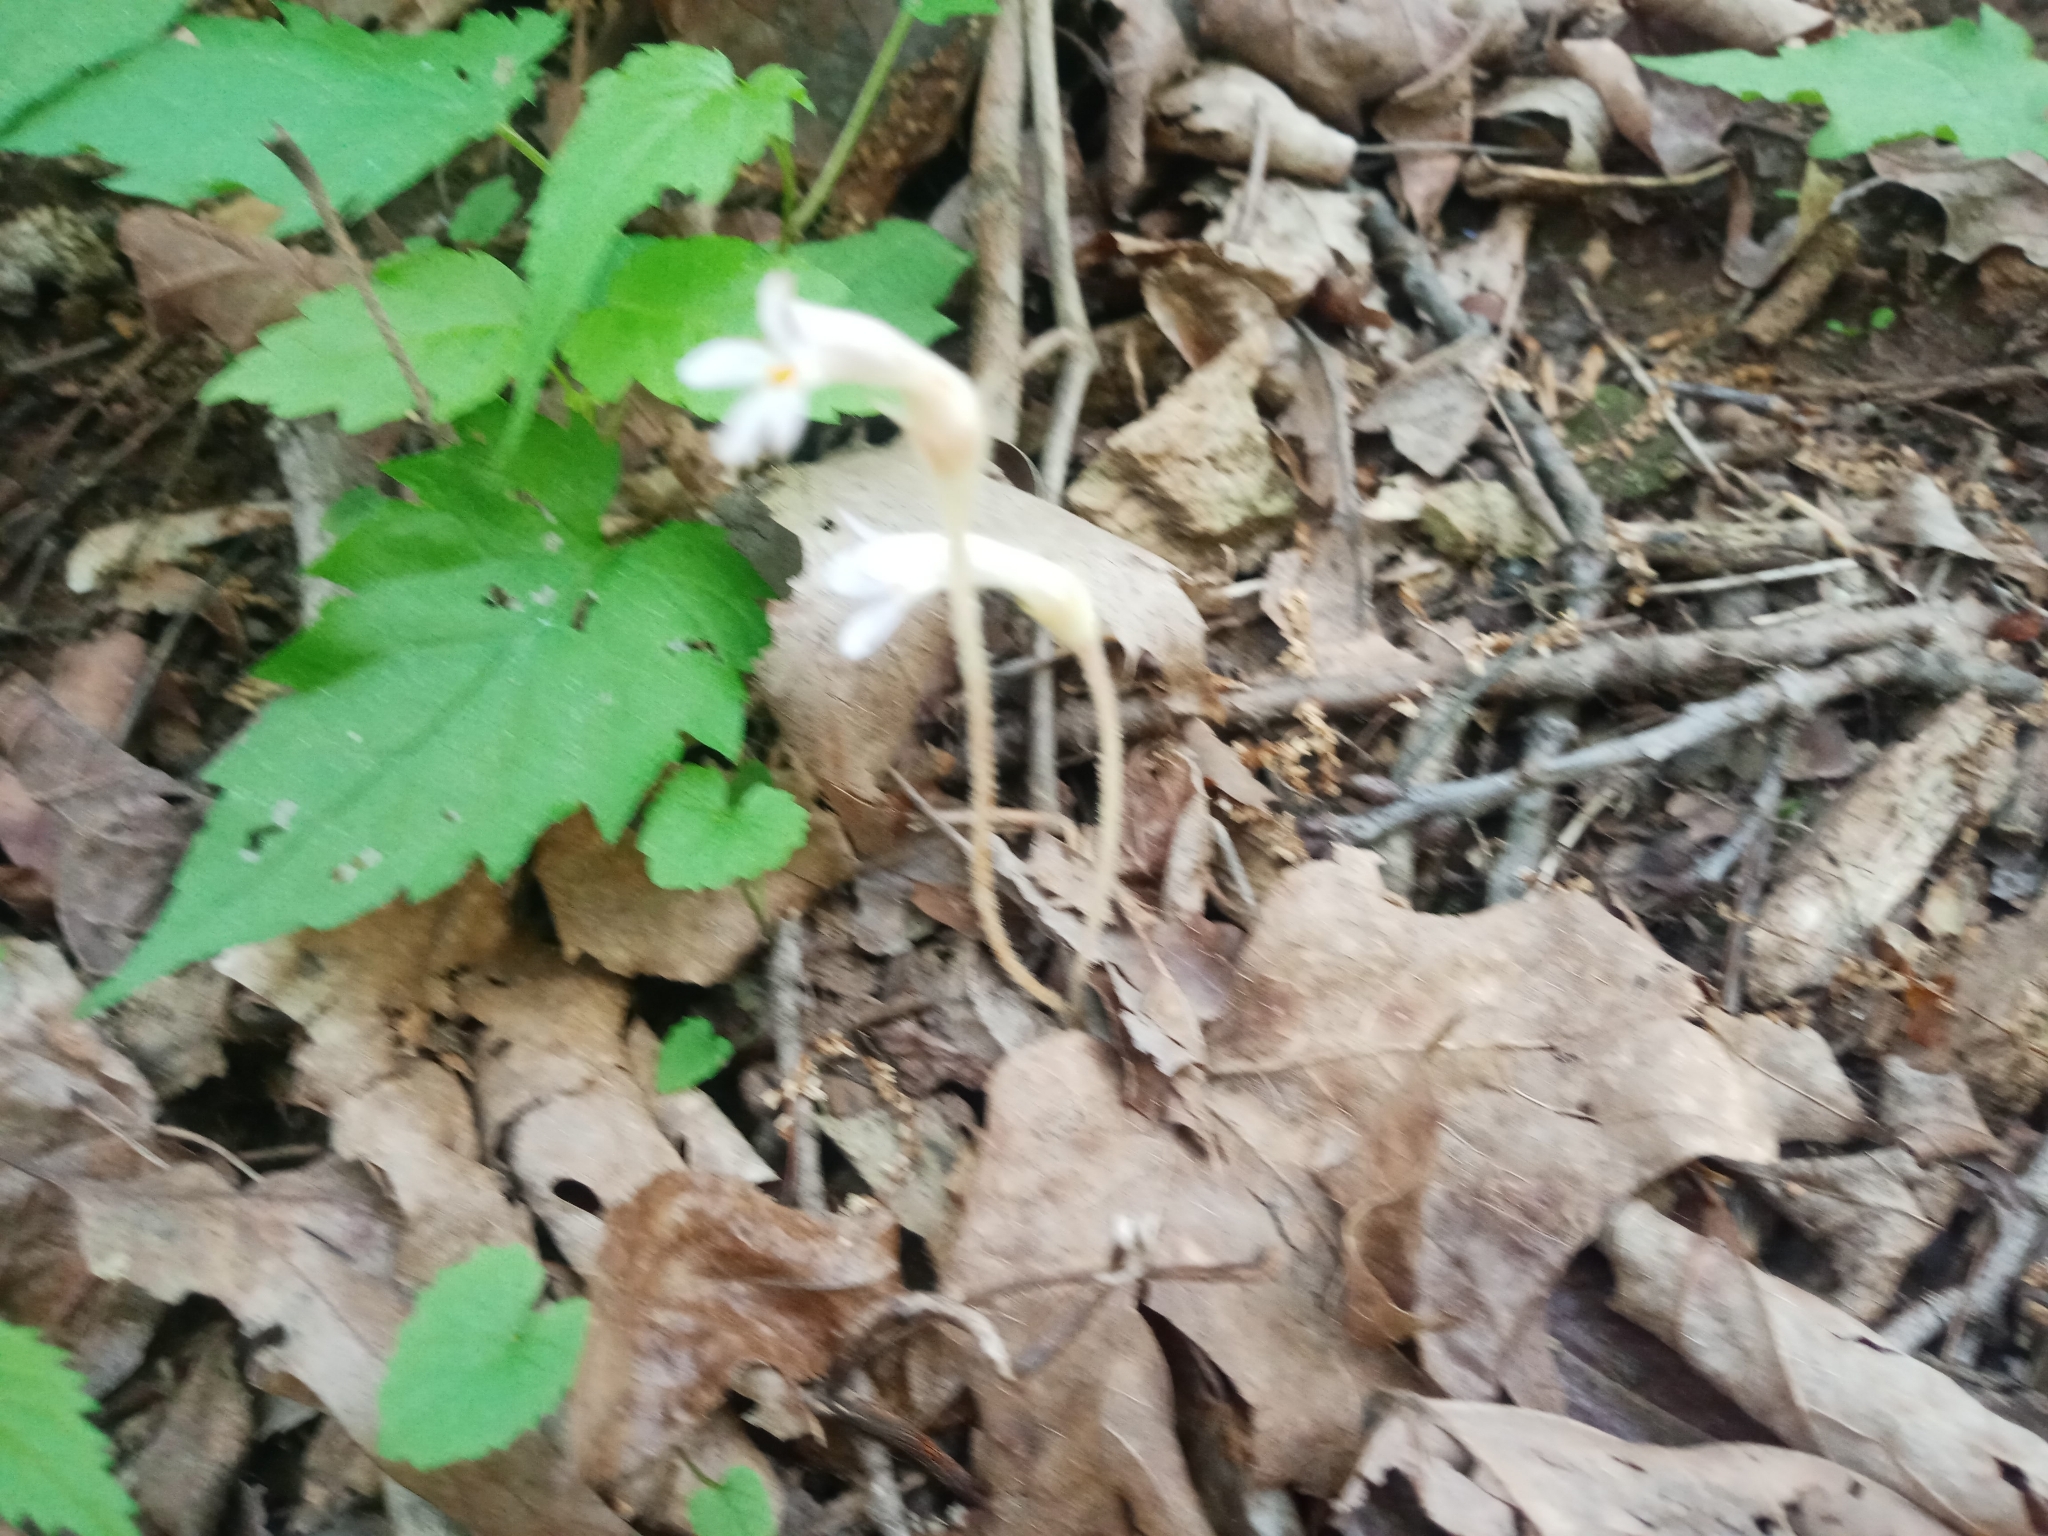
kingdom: Plantae
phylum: Tracheophyta
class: Magnoliopsida
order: Lamiales
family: Orobanchaceae
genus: Aphyllon
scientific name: Aphyllon uniflorum
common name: One-flowered broomrape
